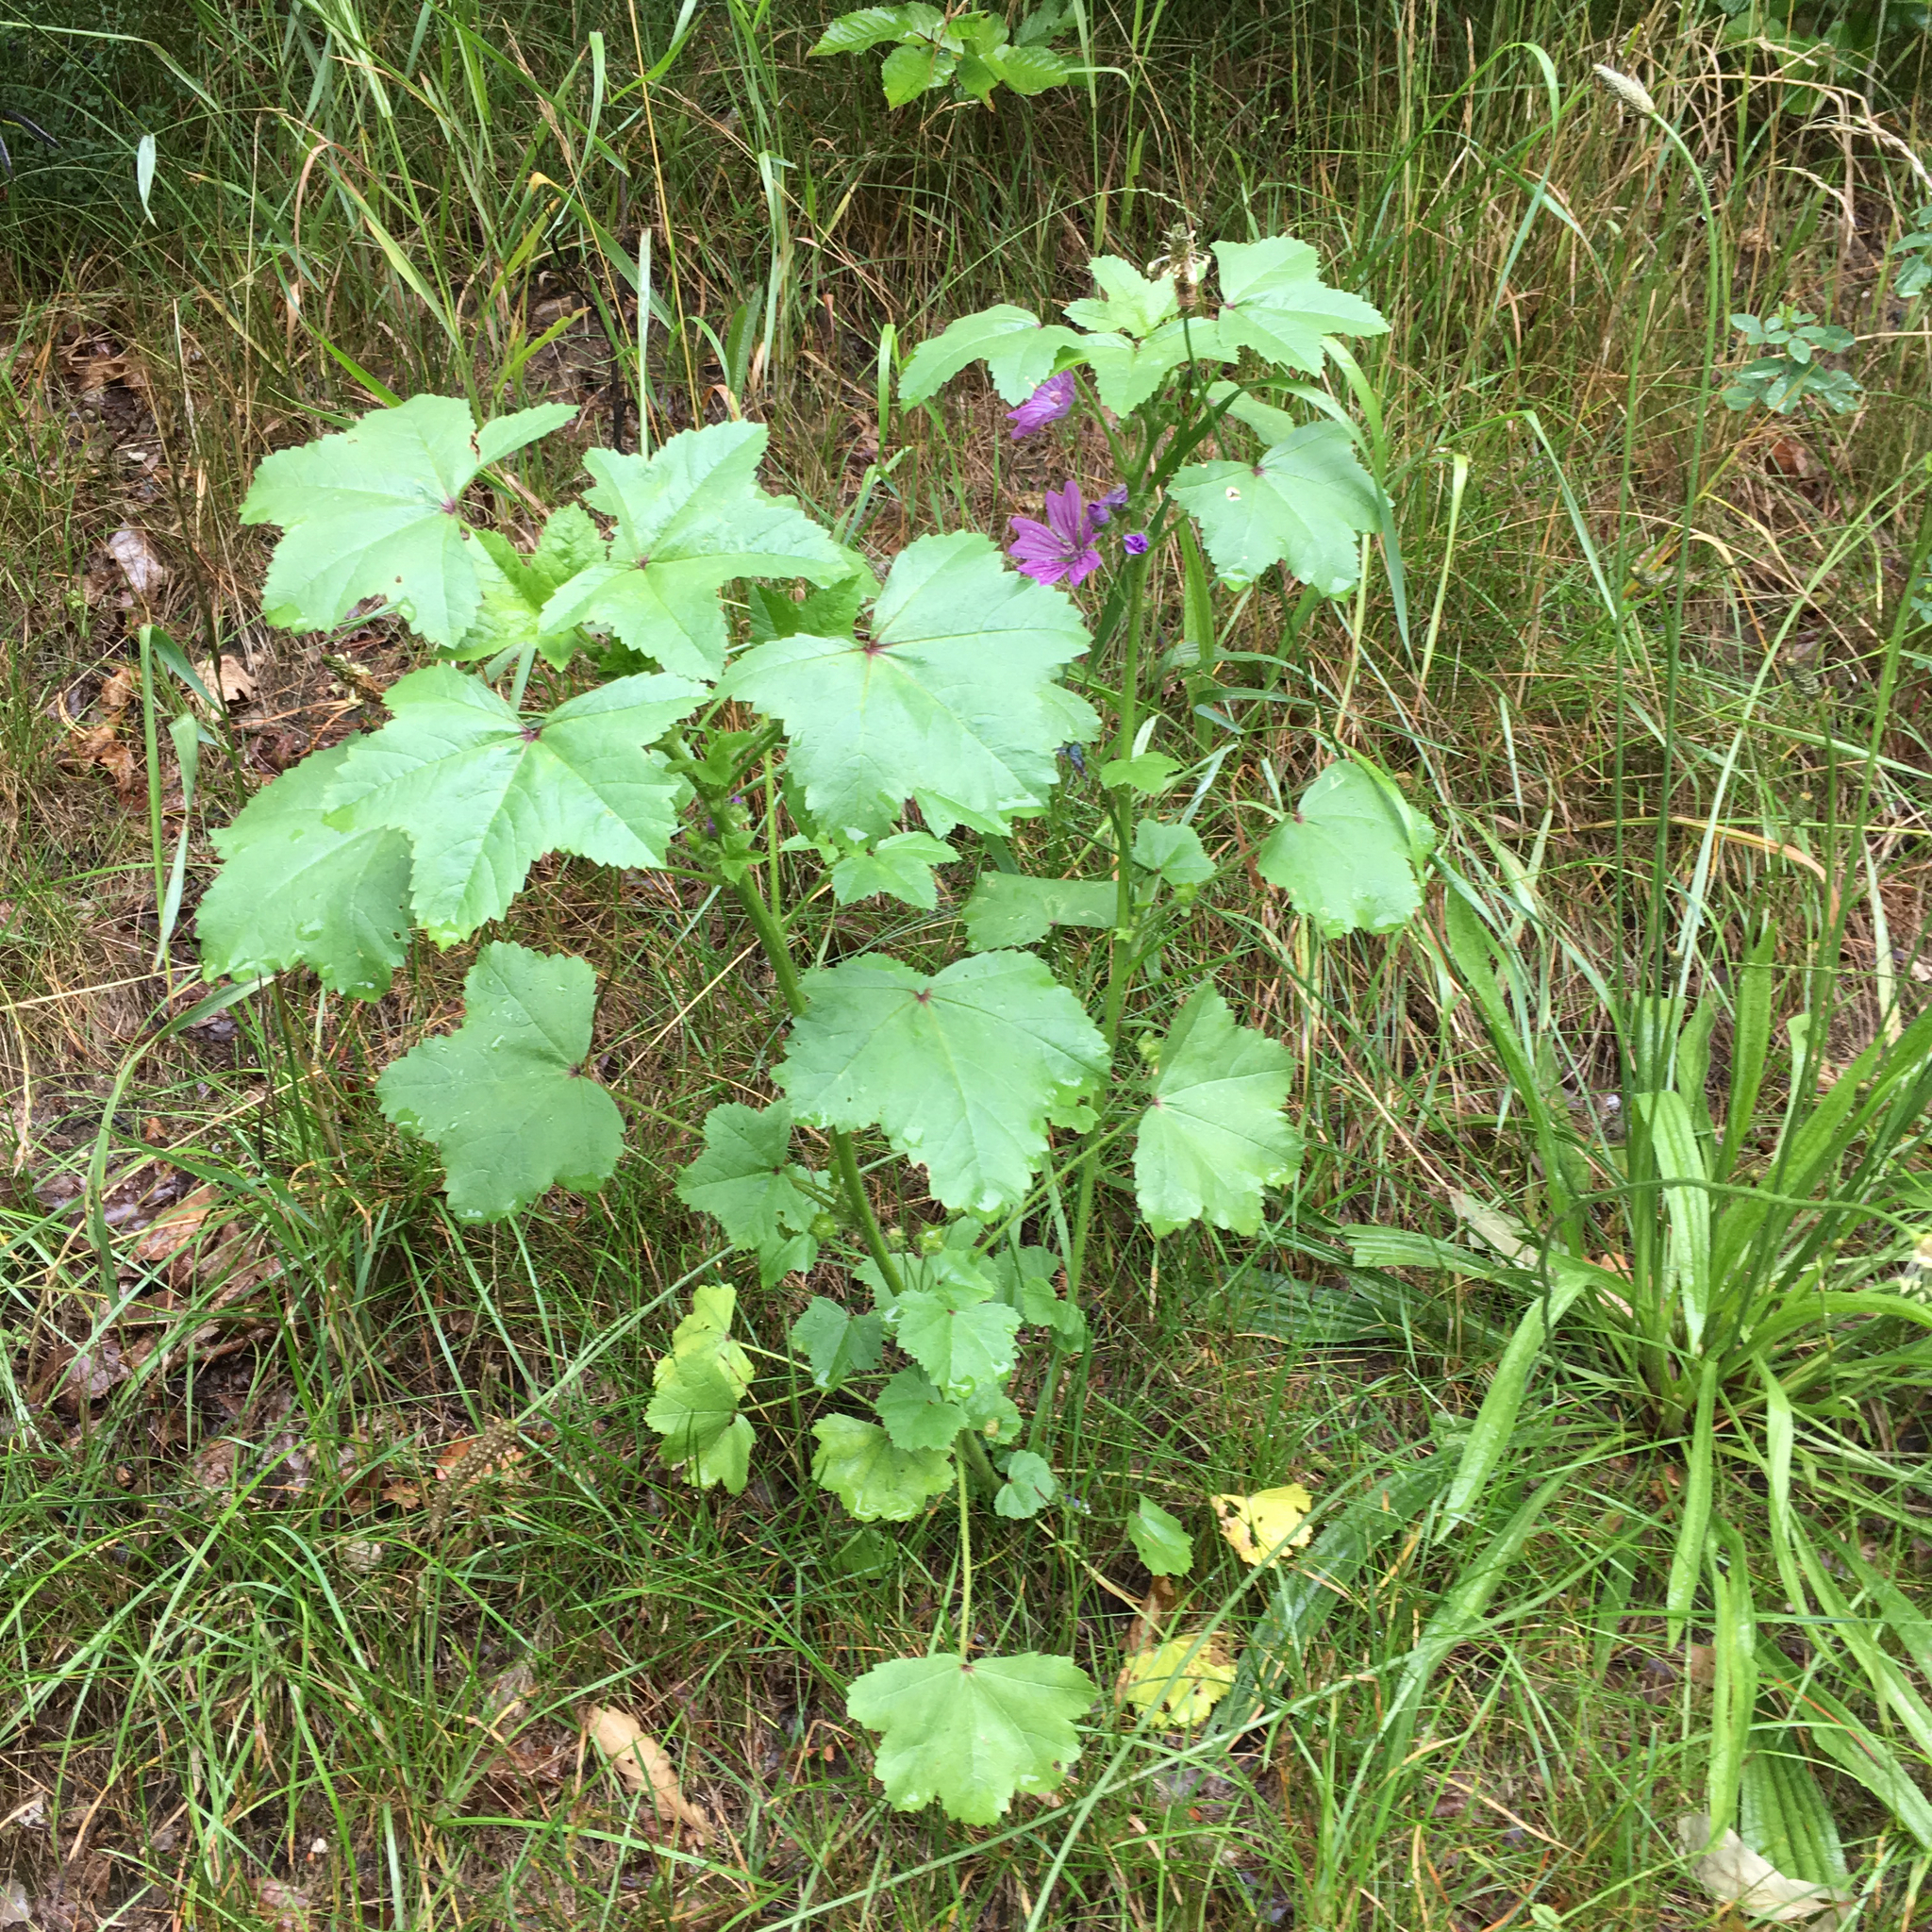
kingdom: Plantae
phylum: Tracheophyta
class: Magnoliopsida
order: Malvales
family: Malvaceae
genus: Malva
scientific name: Malva sylvestris
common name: Common mallow
